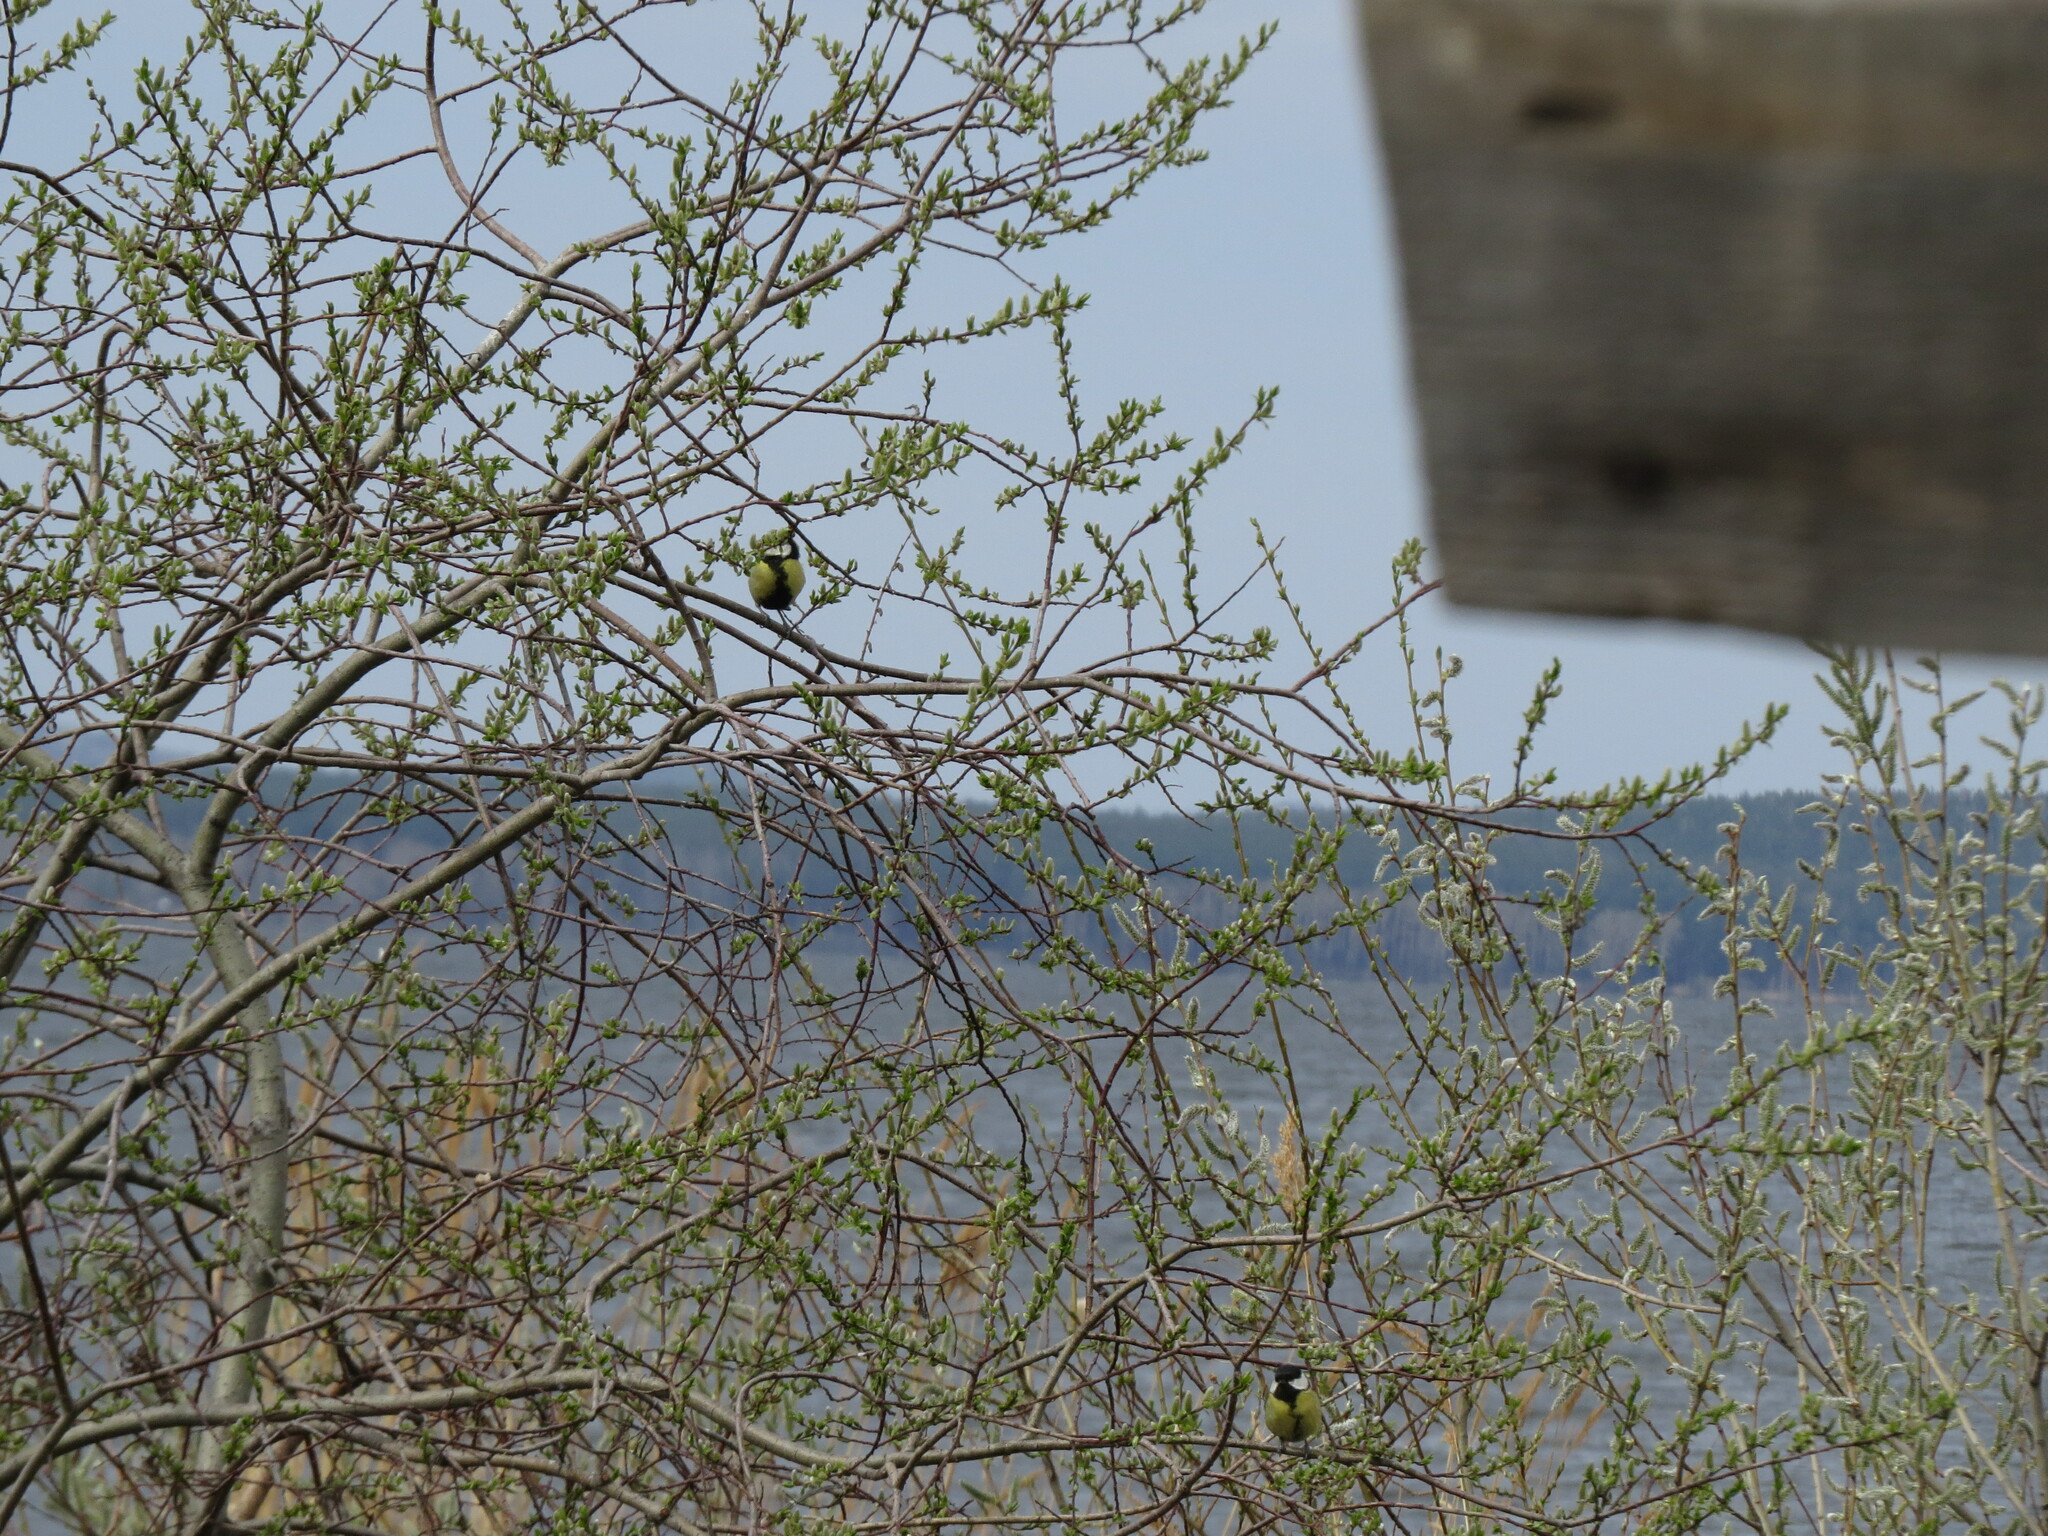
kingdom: Animalia
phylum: Chordata
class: Aves
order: Passeriformes
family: Paridae
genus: Parus
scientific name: Parus major
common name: Great tit
